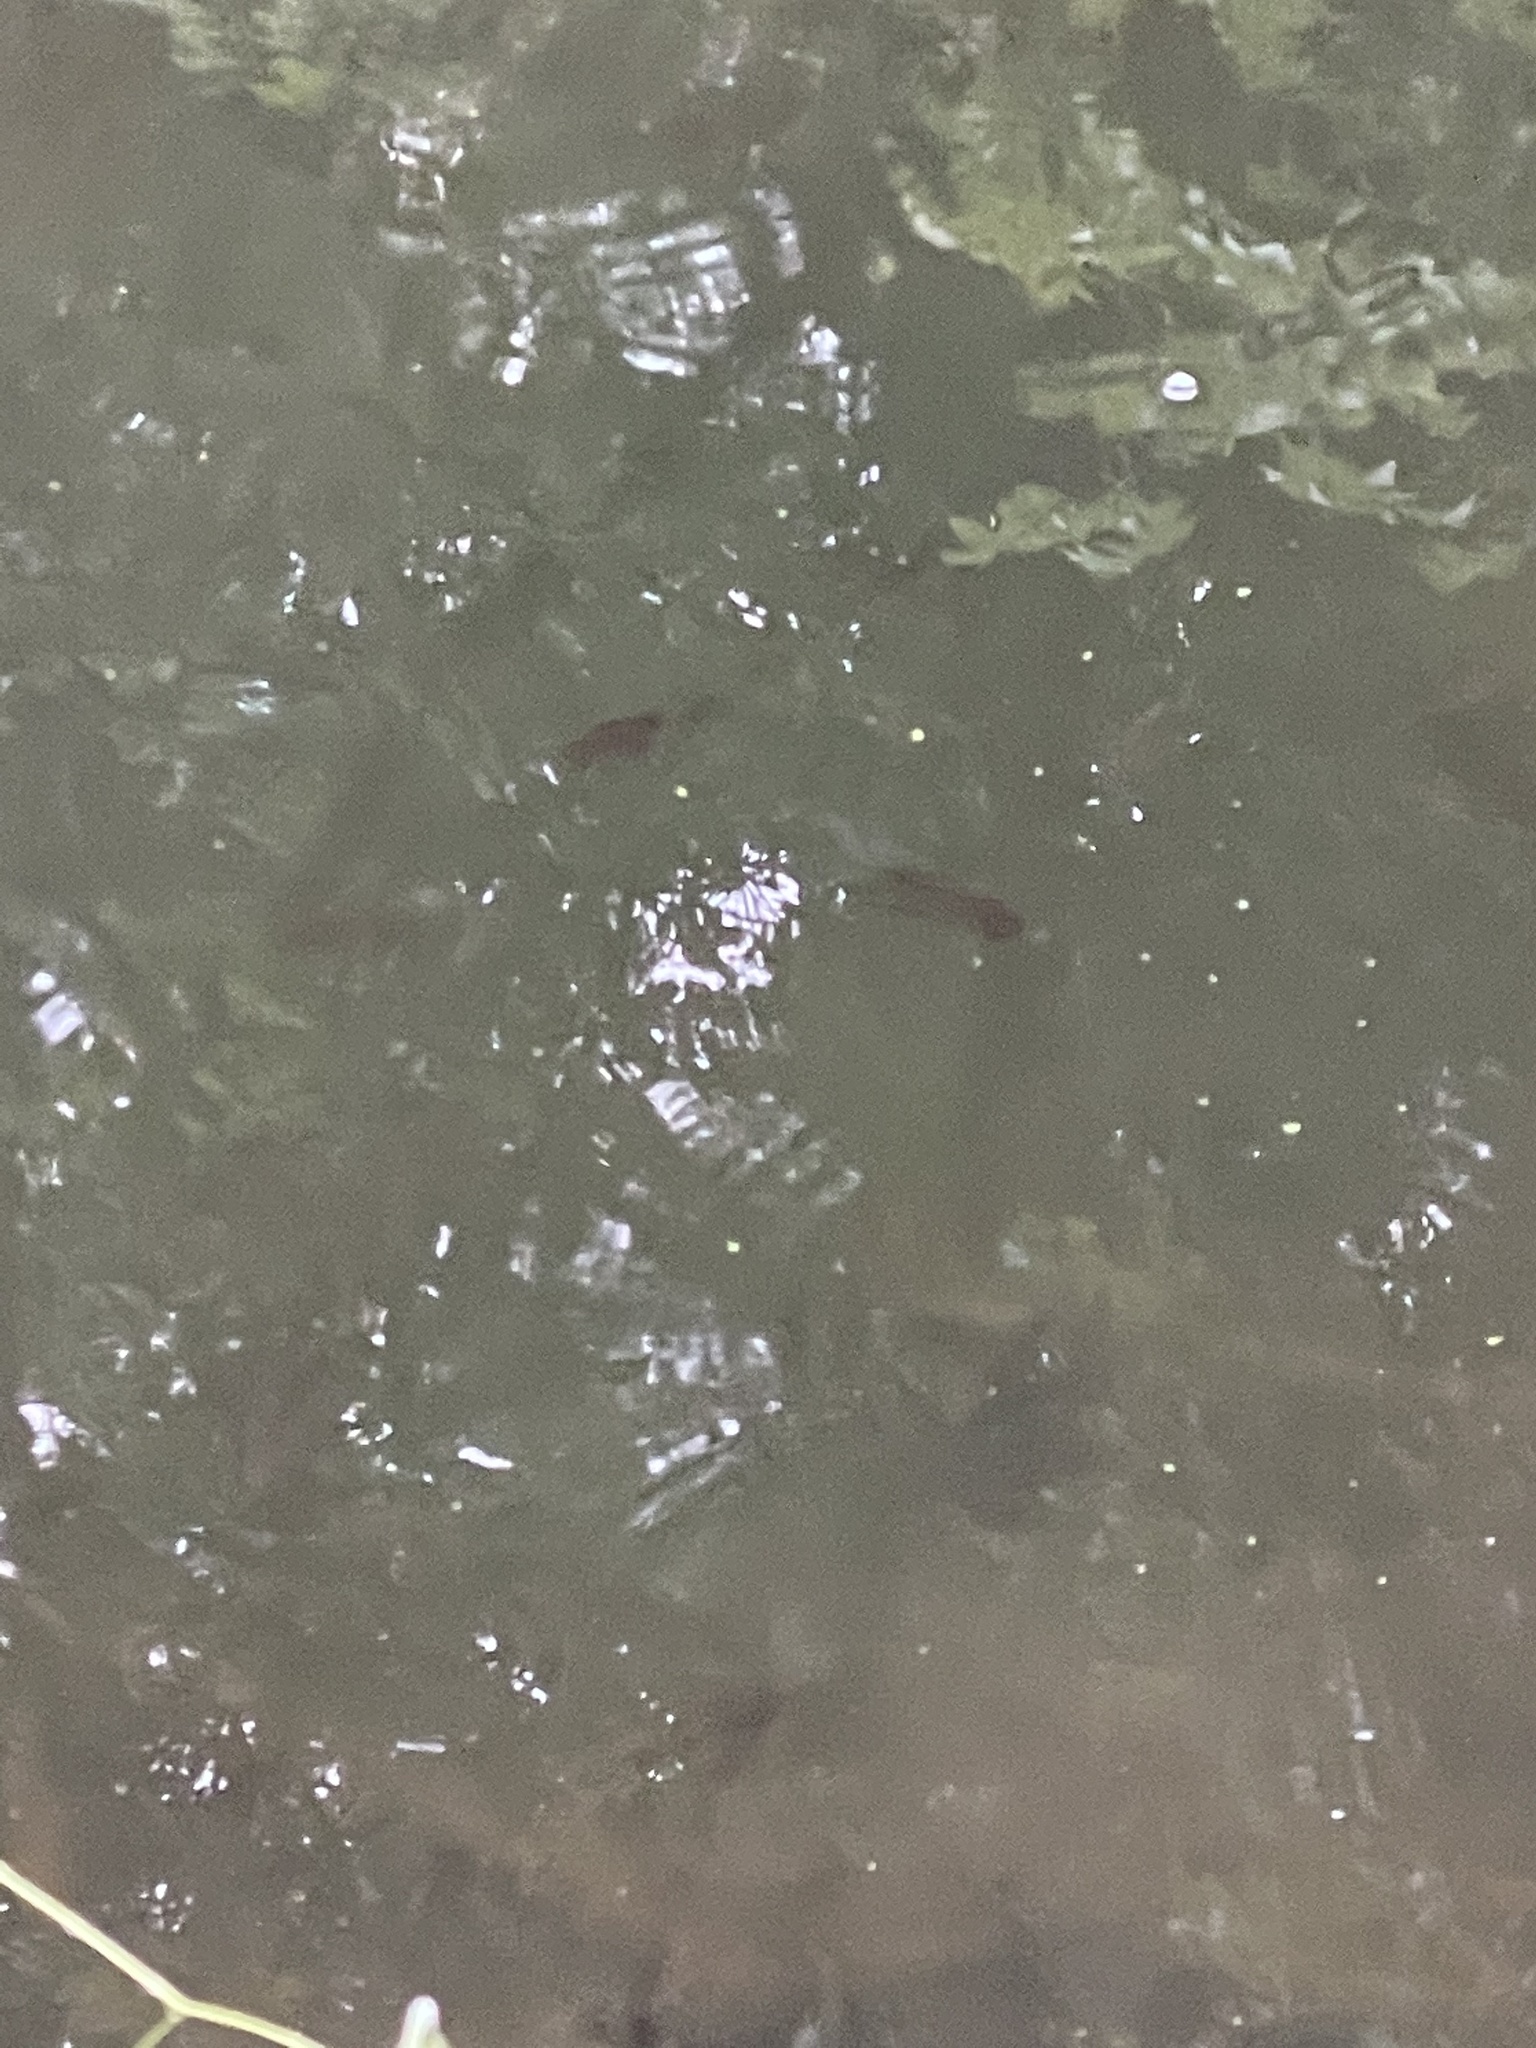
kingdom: Animalia
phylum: Chordata
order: Cypriniformes
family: Cyprinidae
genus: Cyprinus
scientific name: Cyprinus carpio
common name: Common carp
